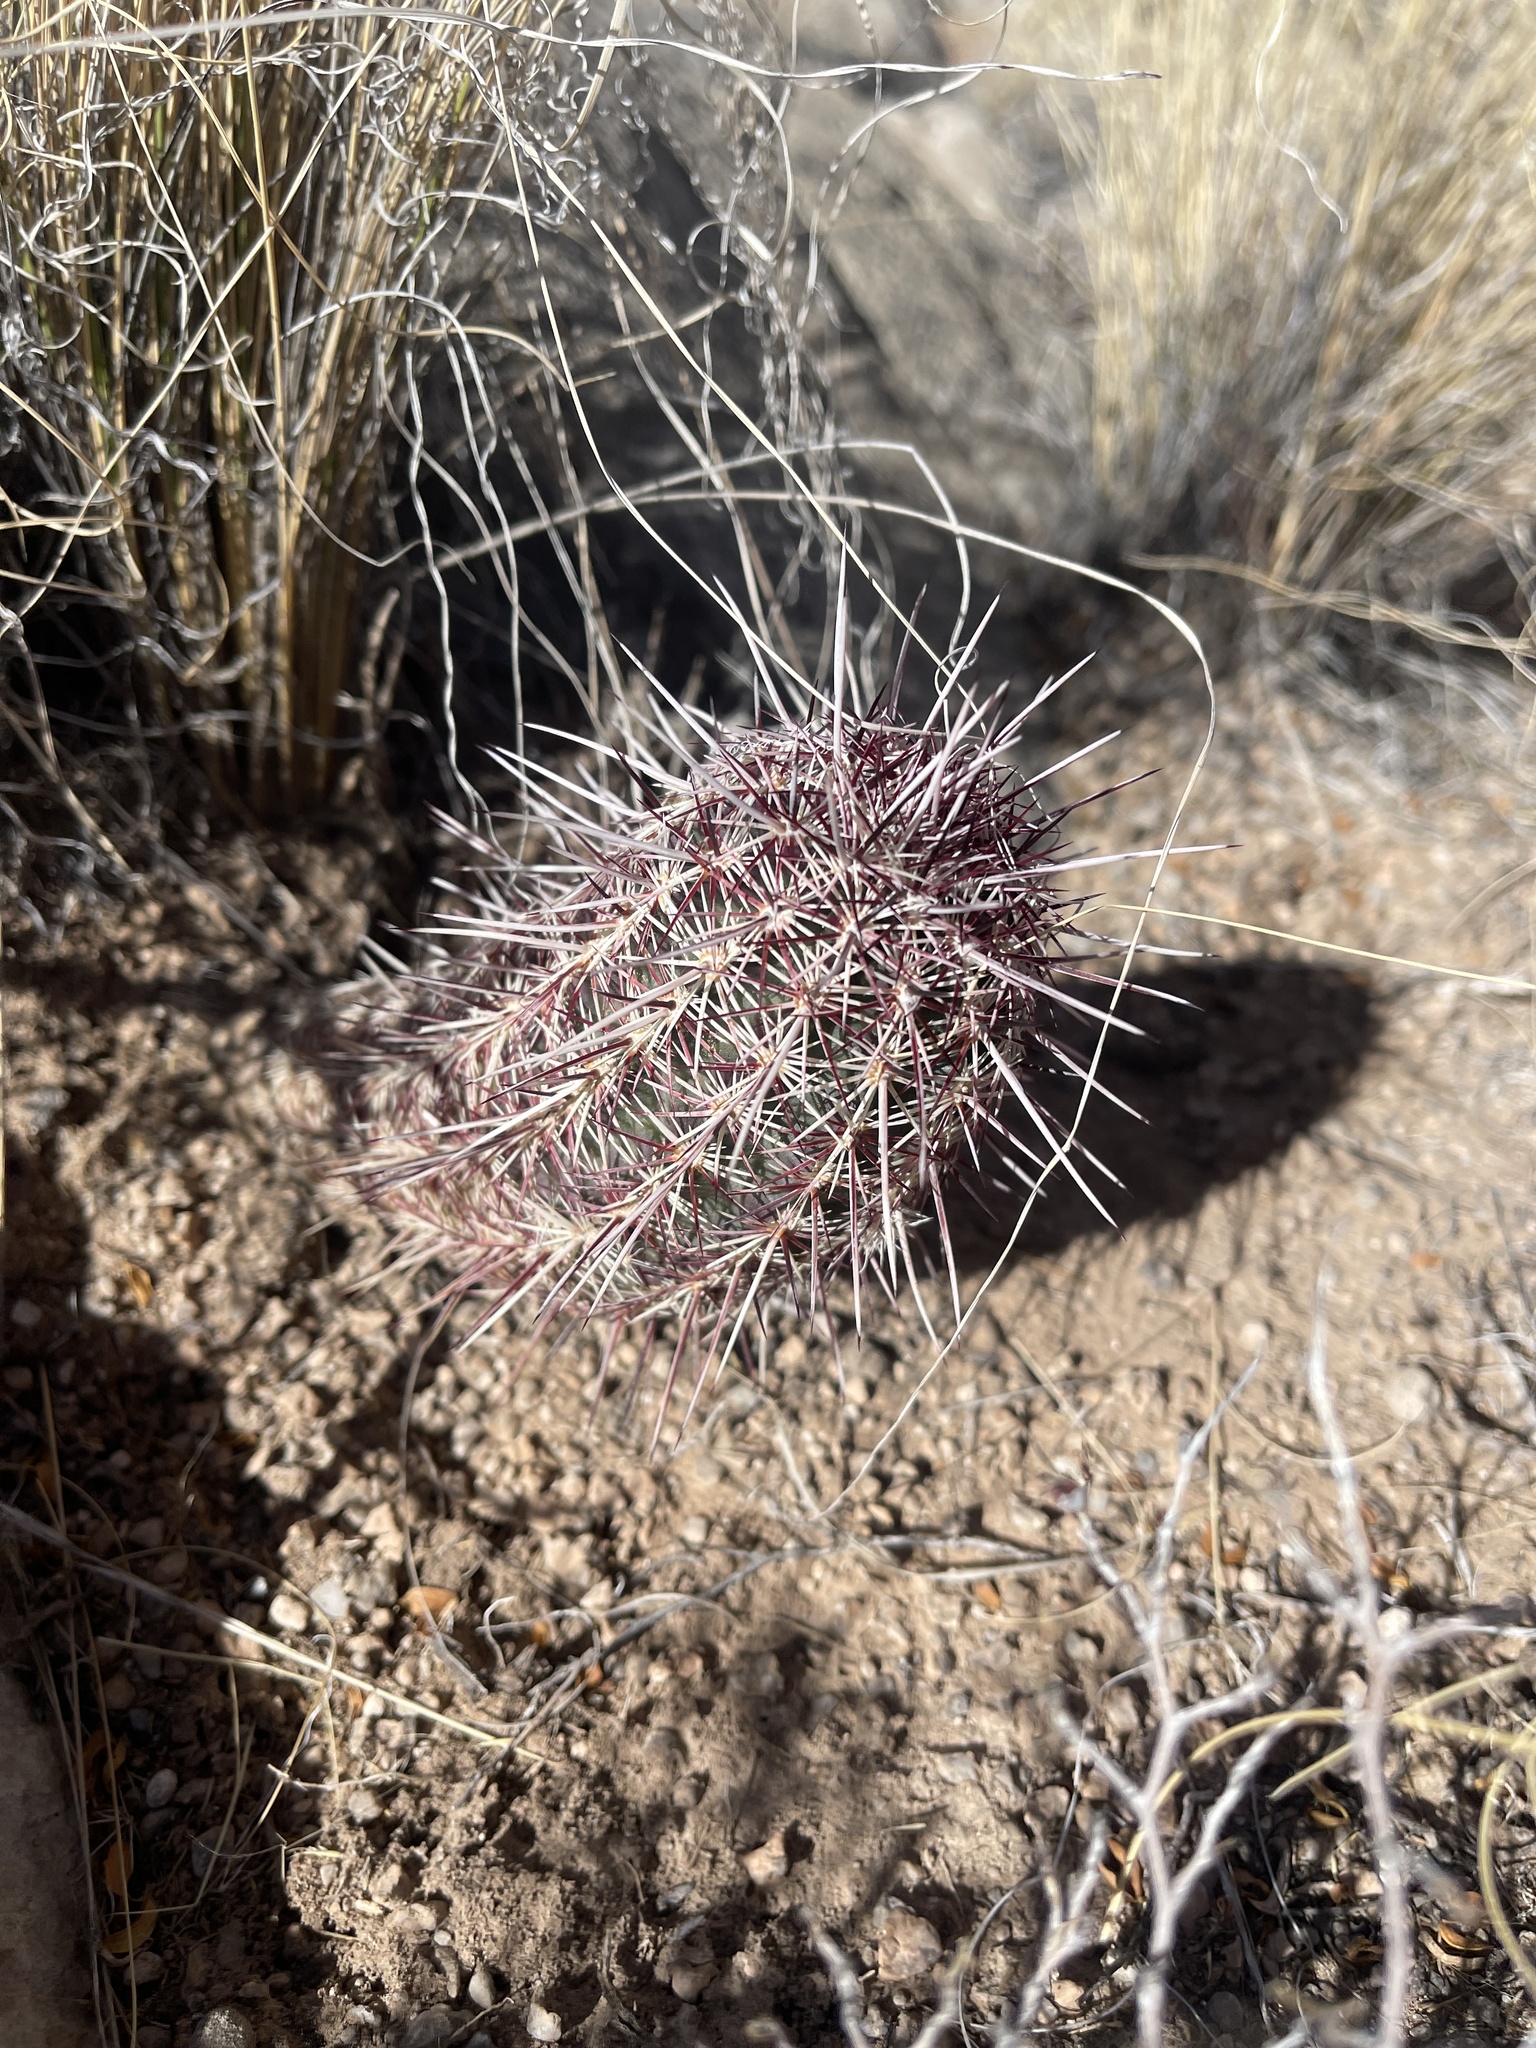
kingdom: Plantae
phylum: Tracheophyta
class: Magnoliopsida
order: Caryophyllales
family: Cactaceae
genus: Echinocereus
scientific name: Echinocereus viridiflorus
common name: Nylon hedgehog cactus
